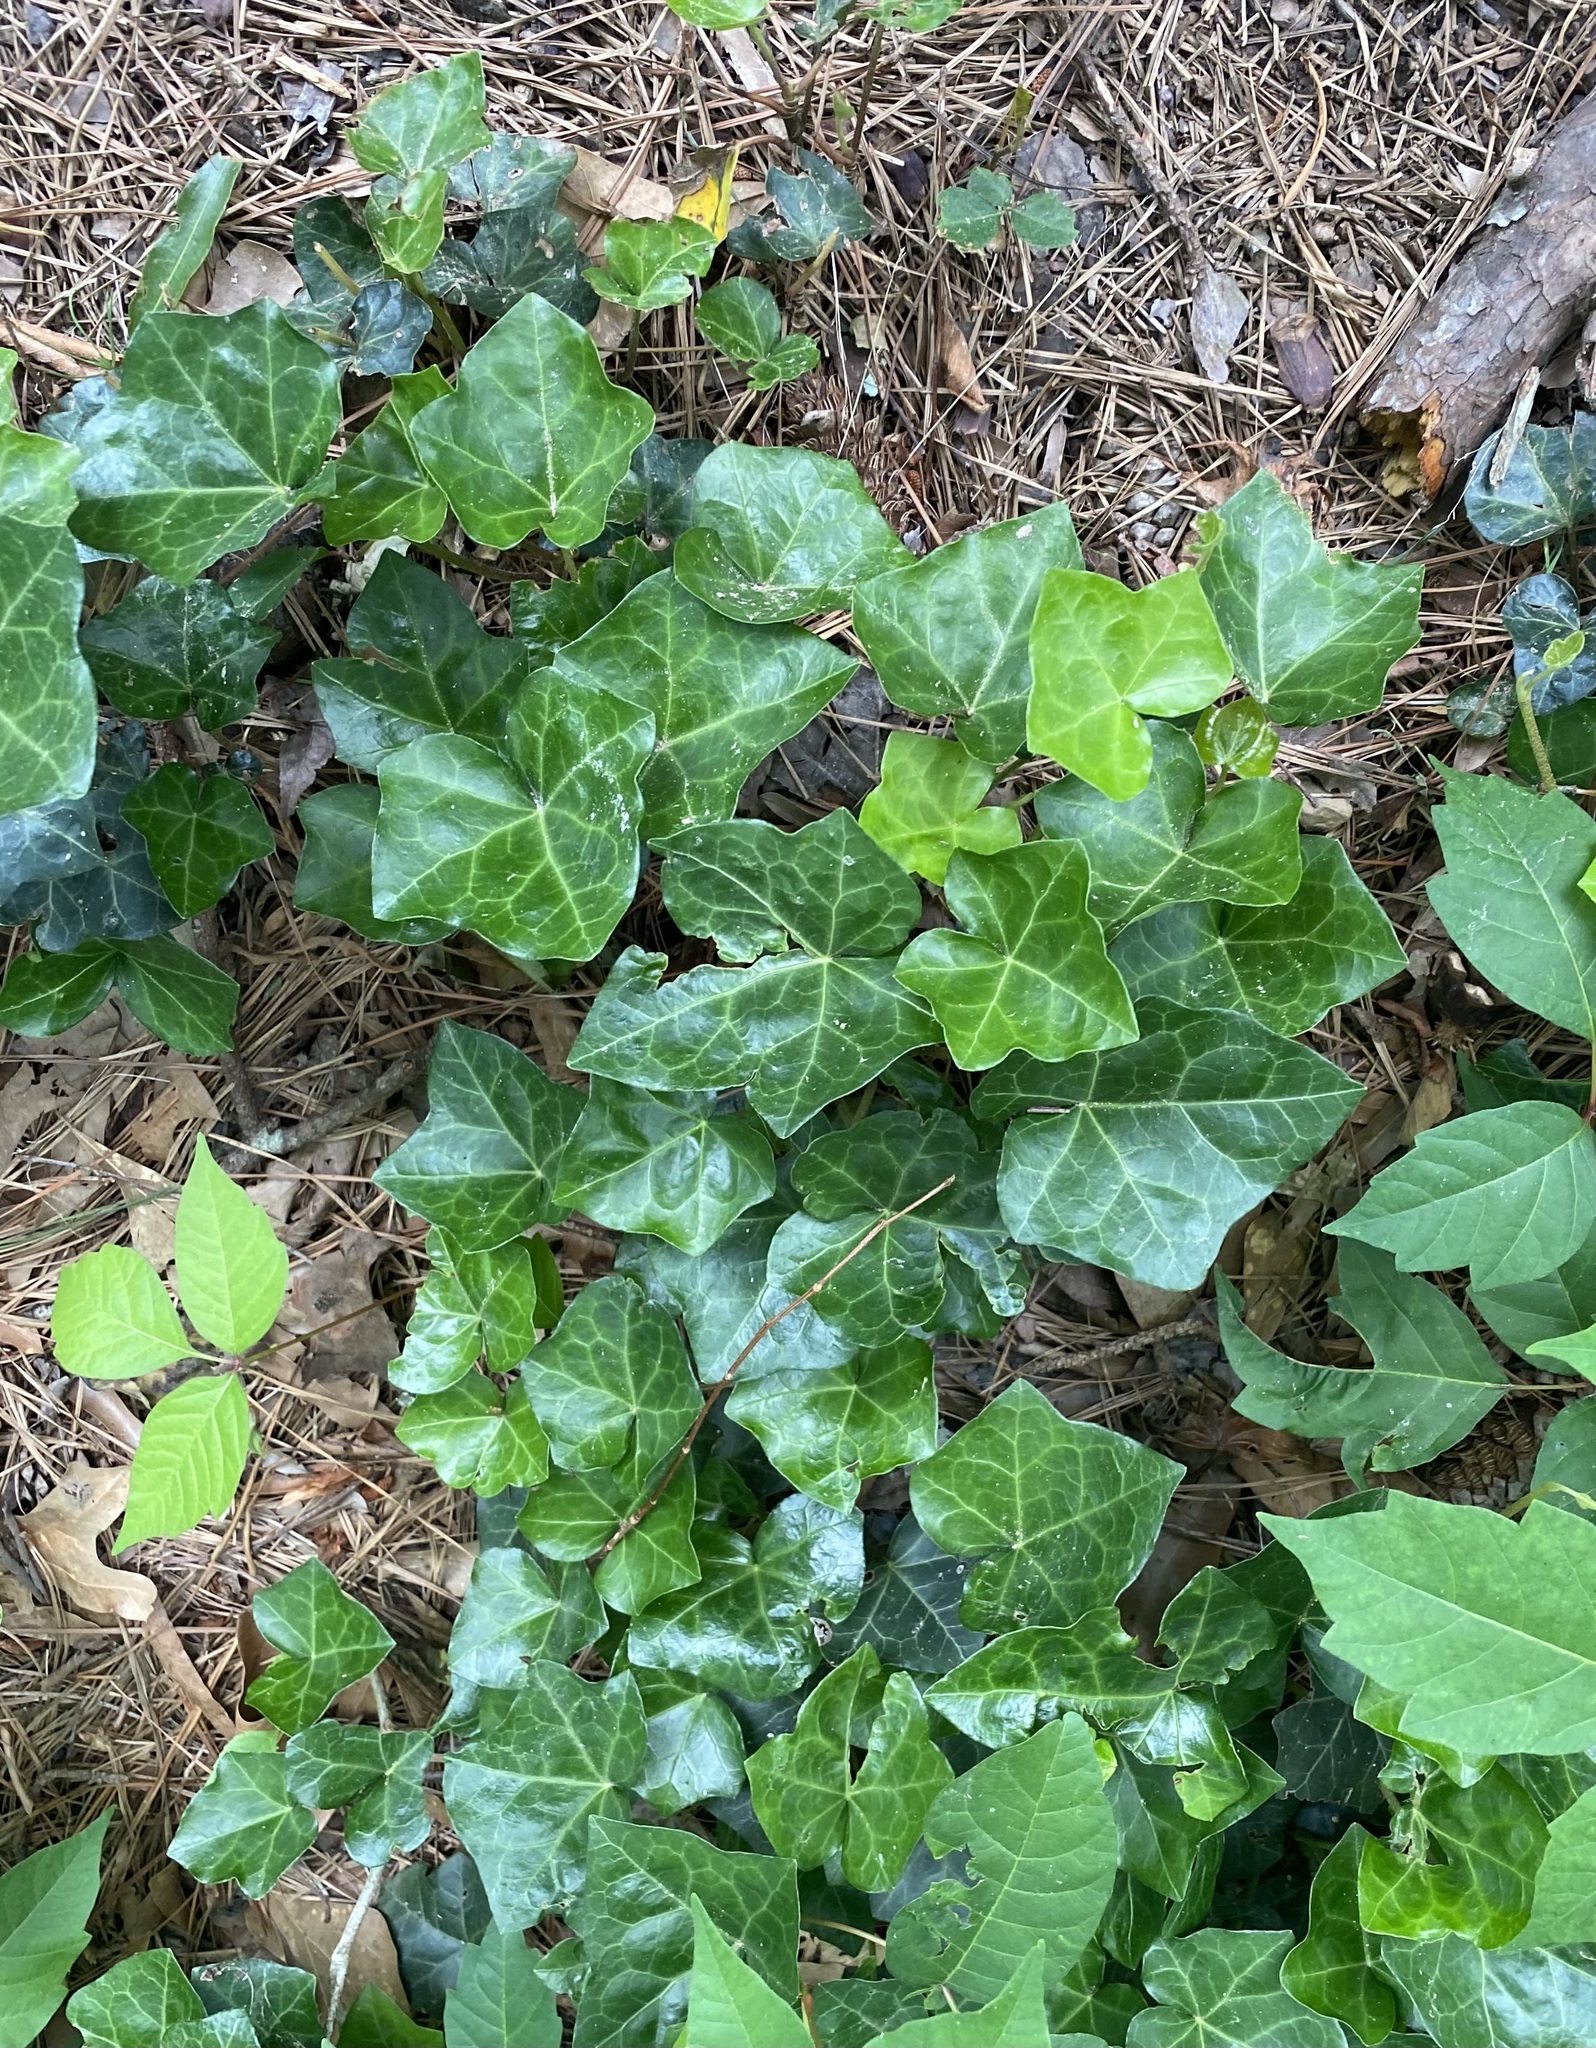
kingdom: Plantae
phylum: Tracheophyta
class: Magnoliopsida
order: Apiales
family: Araliaceae
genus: Hedera
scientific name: Hedera helix
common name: Ivy
